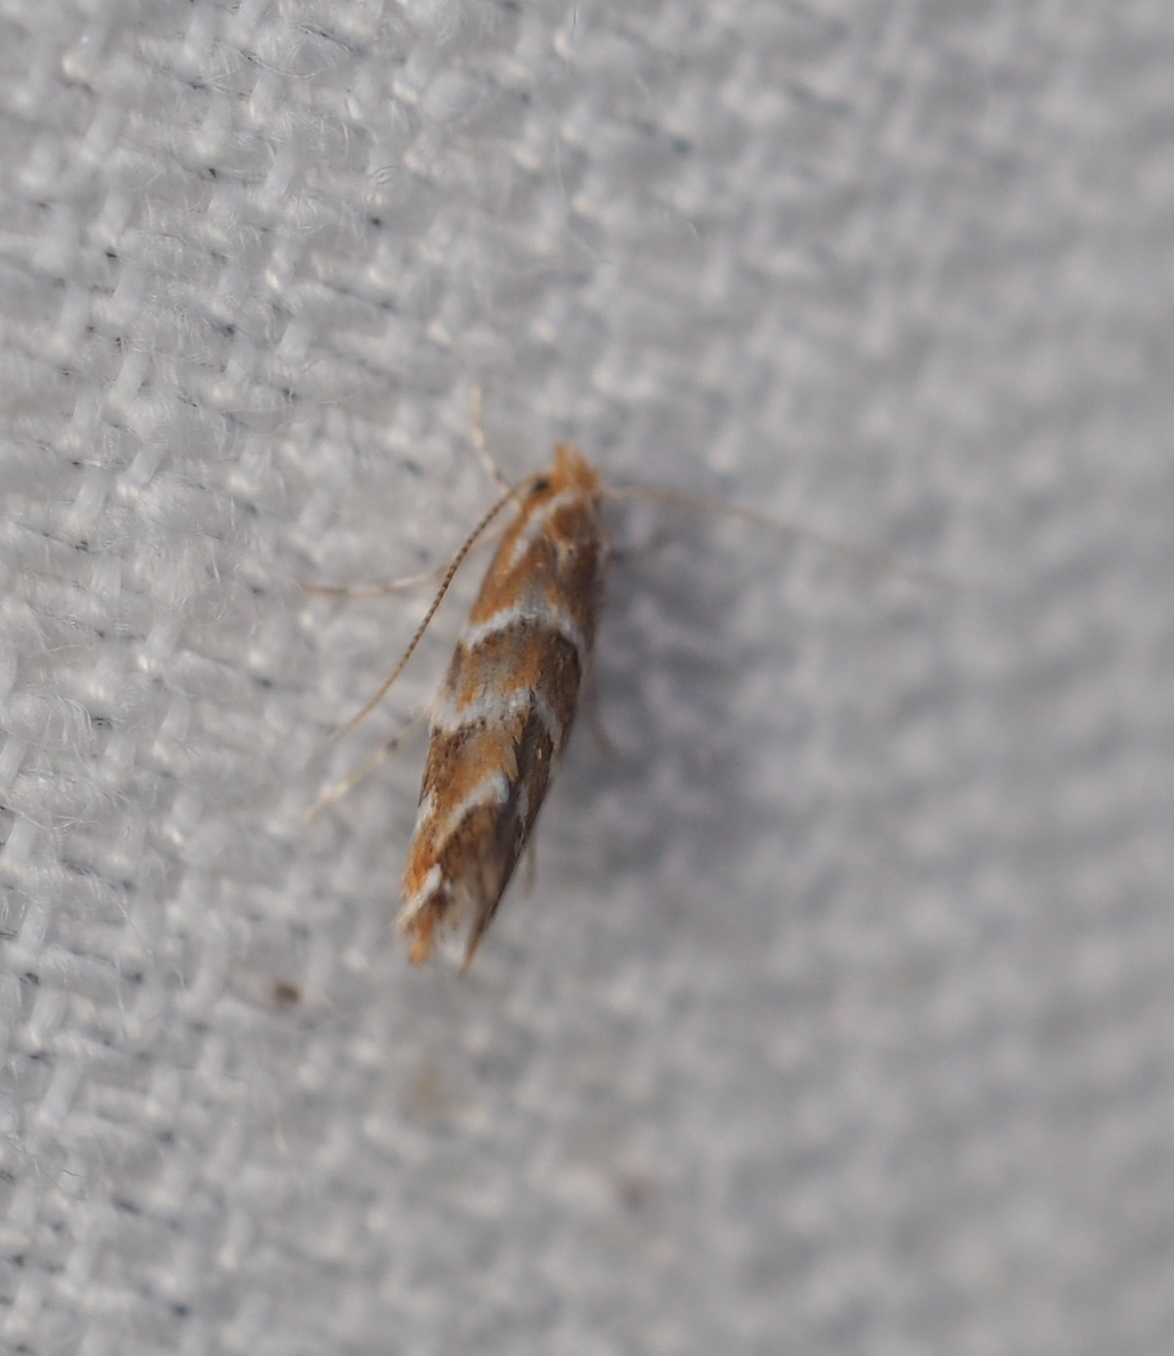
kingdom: Animalia
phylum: Arthropoda
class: Insecta
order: Lepidoptera
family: Gracillariidae
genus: Cameraria
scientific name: Cameraria ohridella
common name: Horse-chestnut leaf-miner
